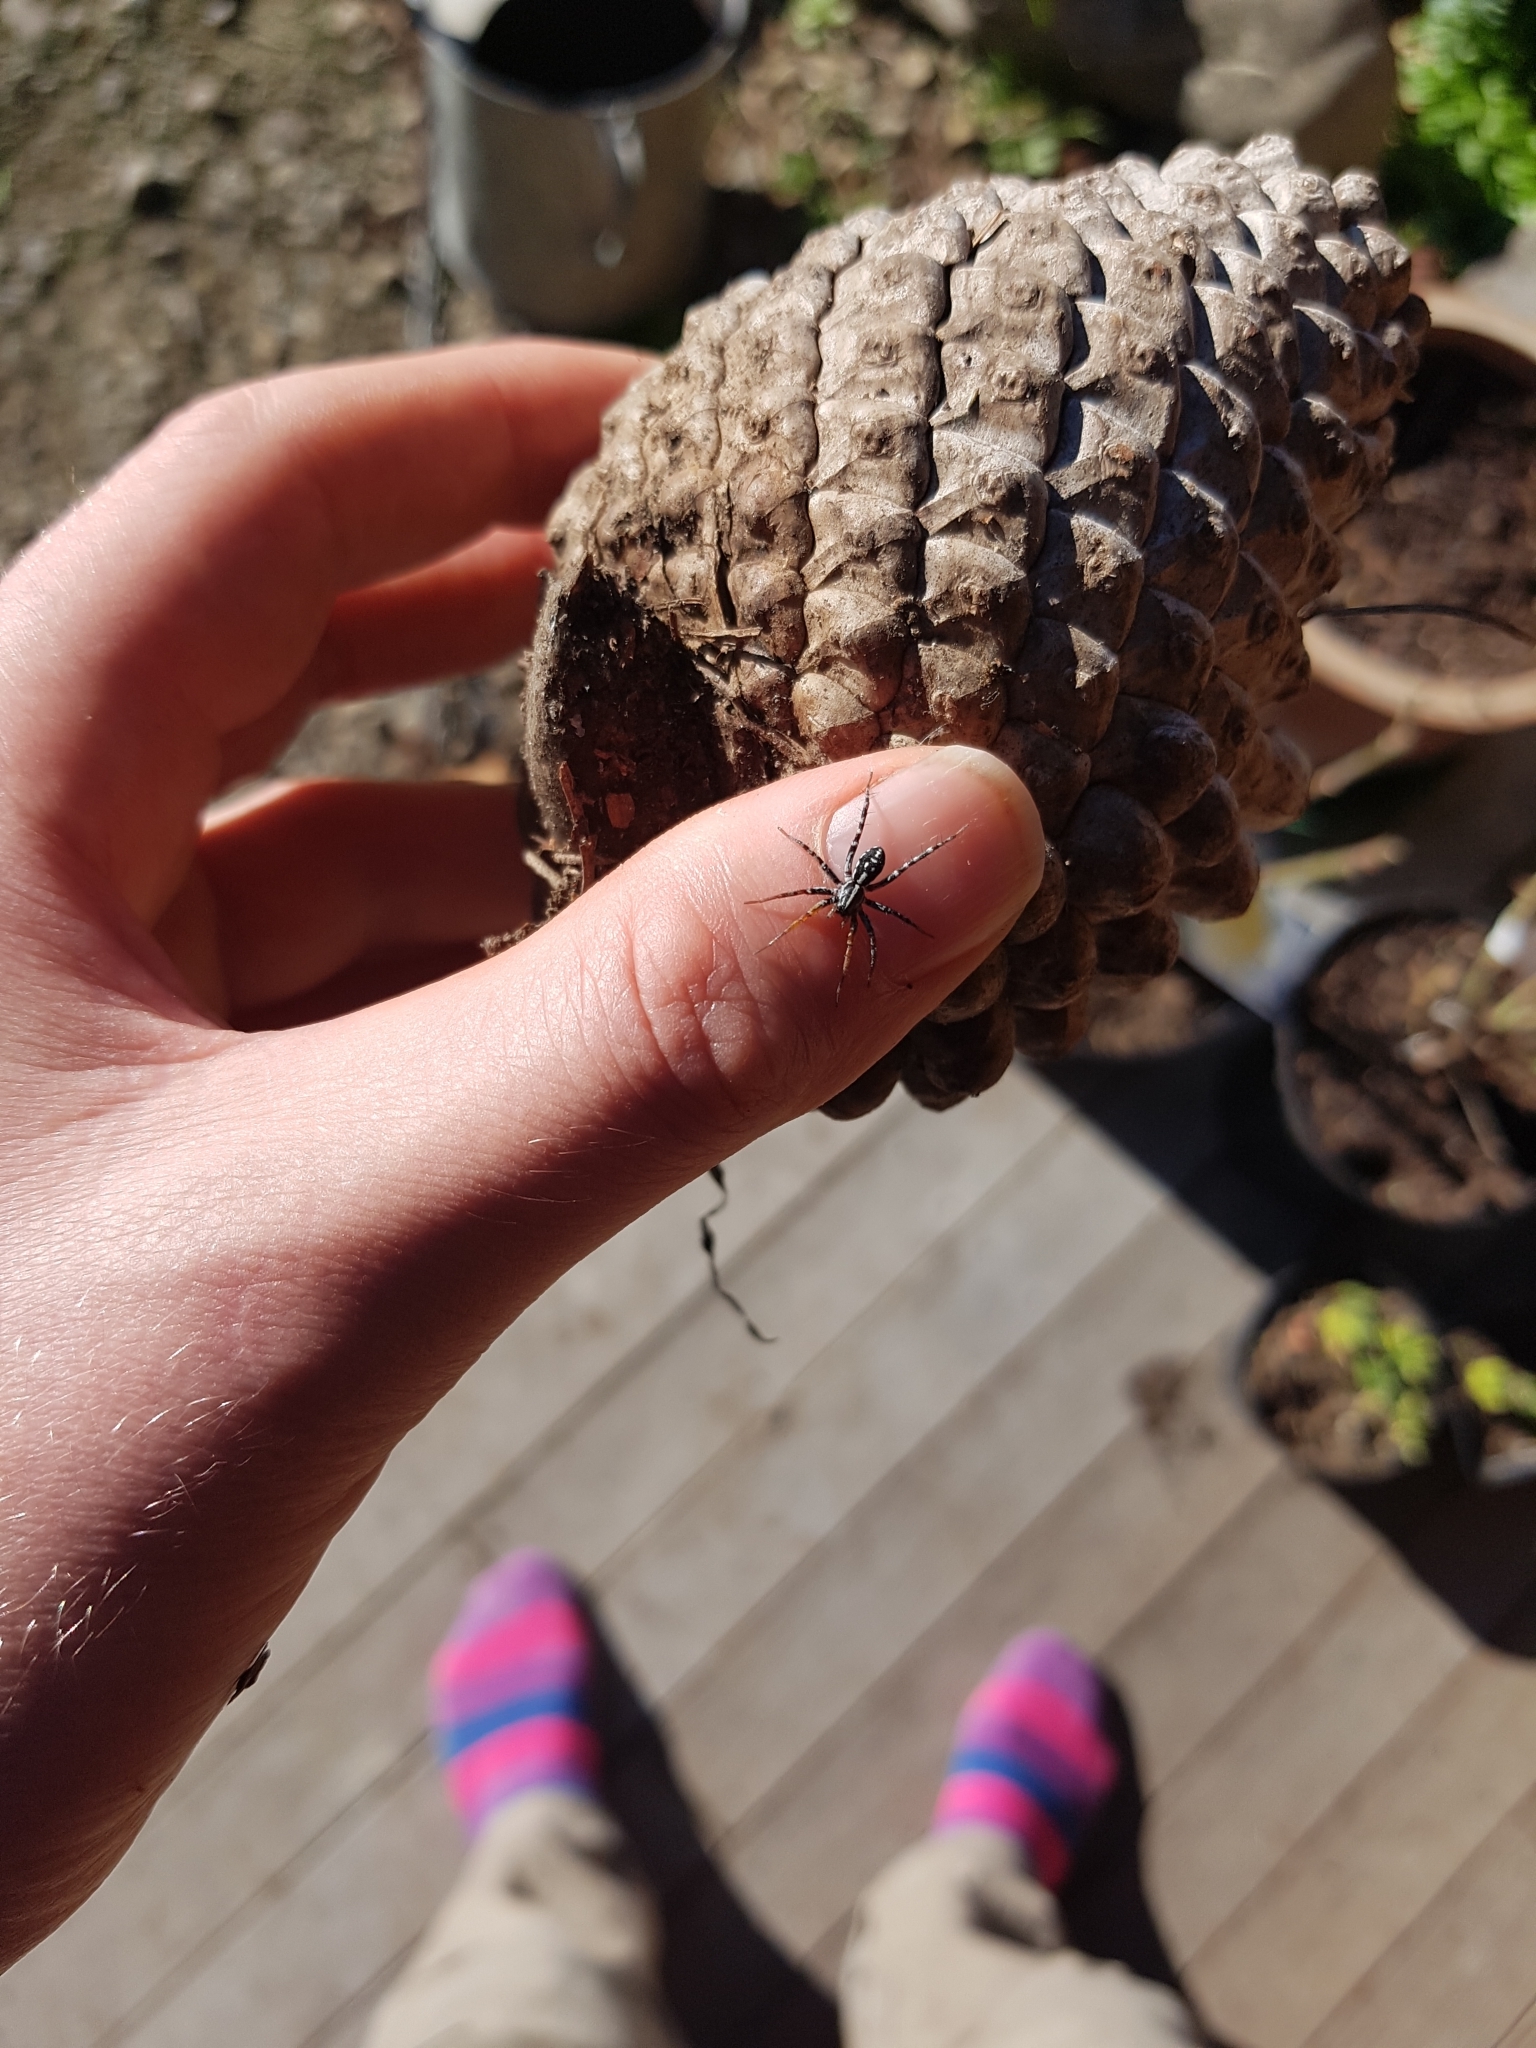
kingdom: Animalia
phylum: Arthropoda
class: Arachnida
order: Araneae
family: Corinnidae
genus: Nyssus
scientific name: Nyssus coloripes
